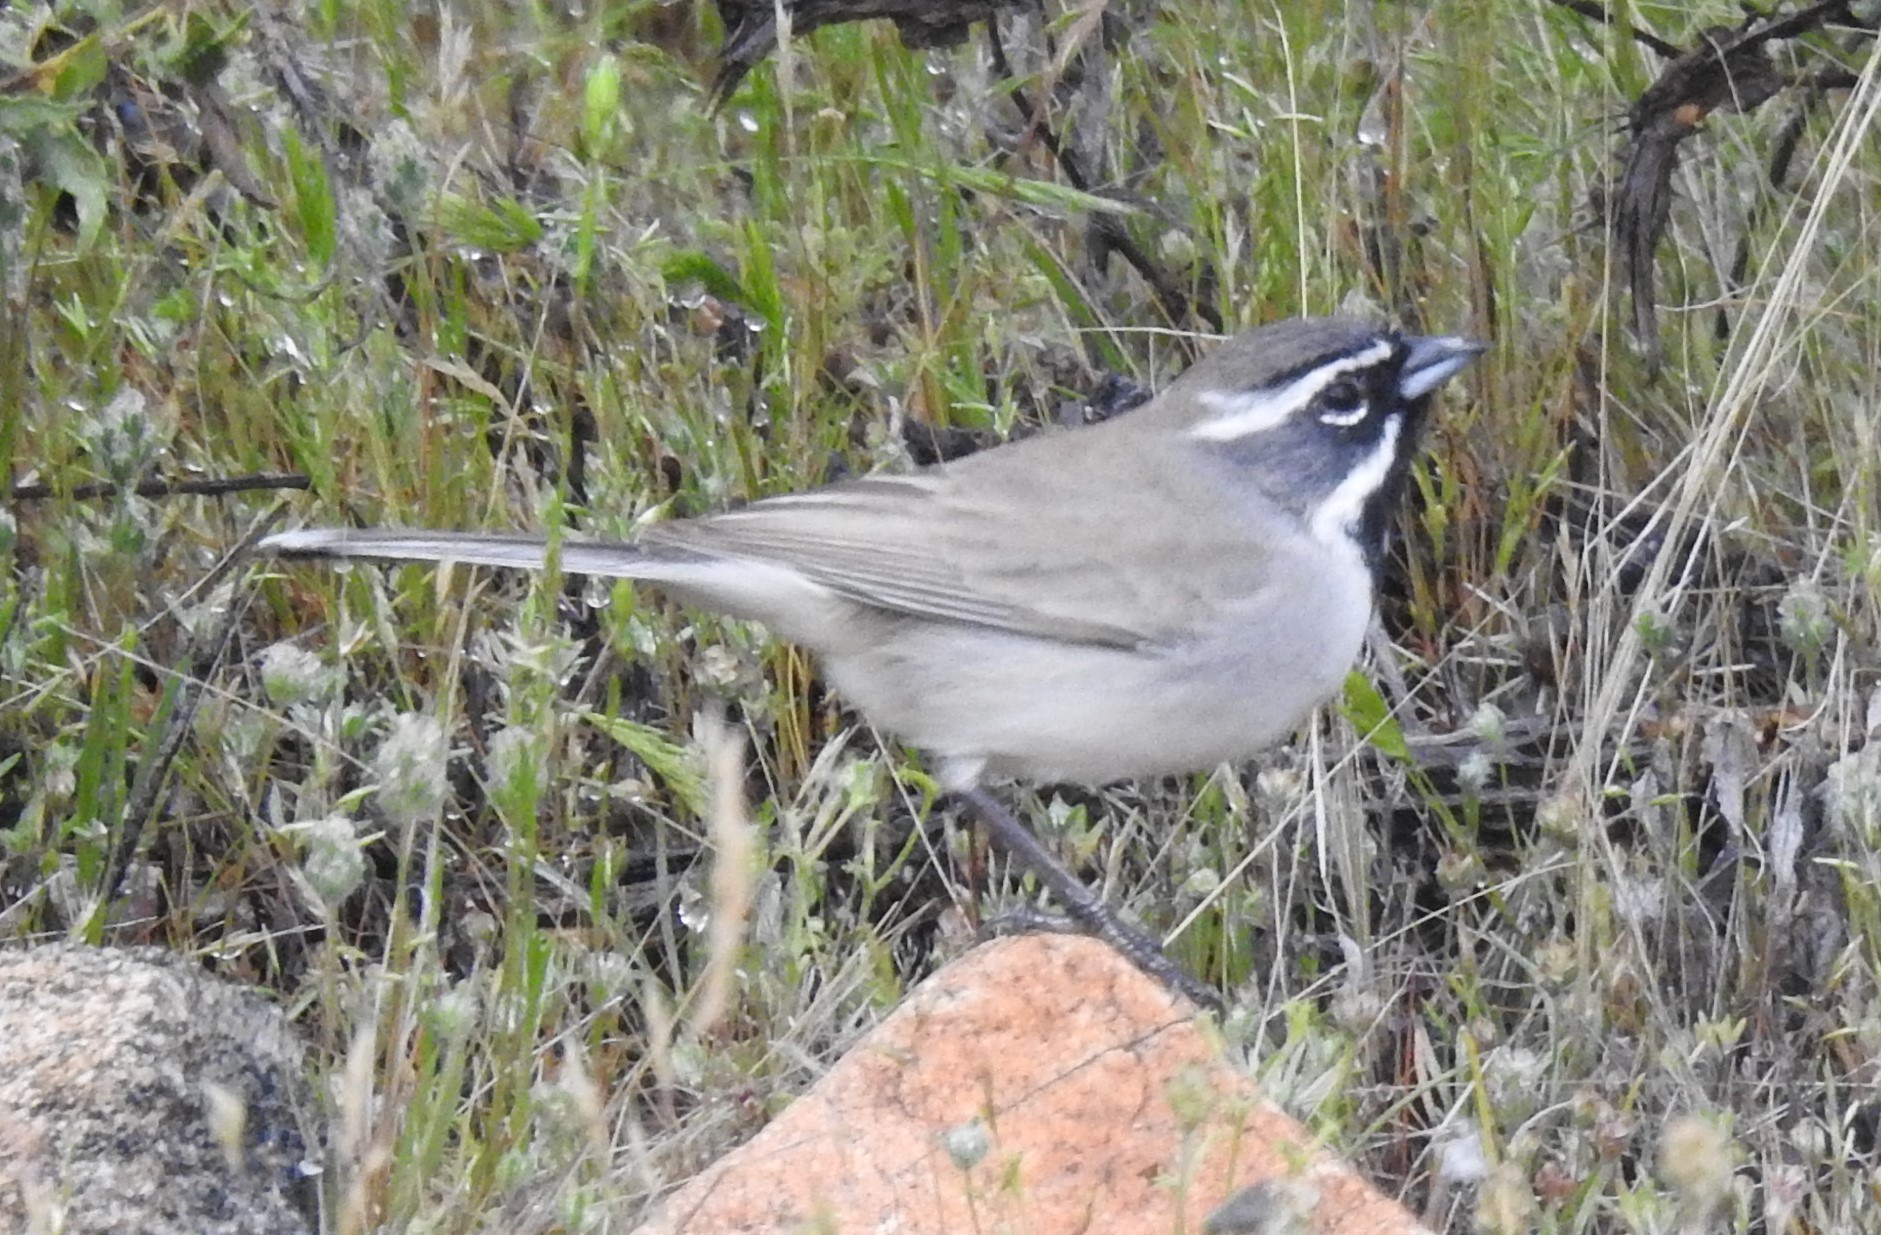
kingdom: Animalia
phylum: Chordata
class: Aves
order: Passeriformes
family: Passerellidae
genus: Amphispiza
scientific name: Amphispiza bilineata
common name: Black-throated sparrow
